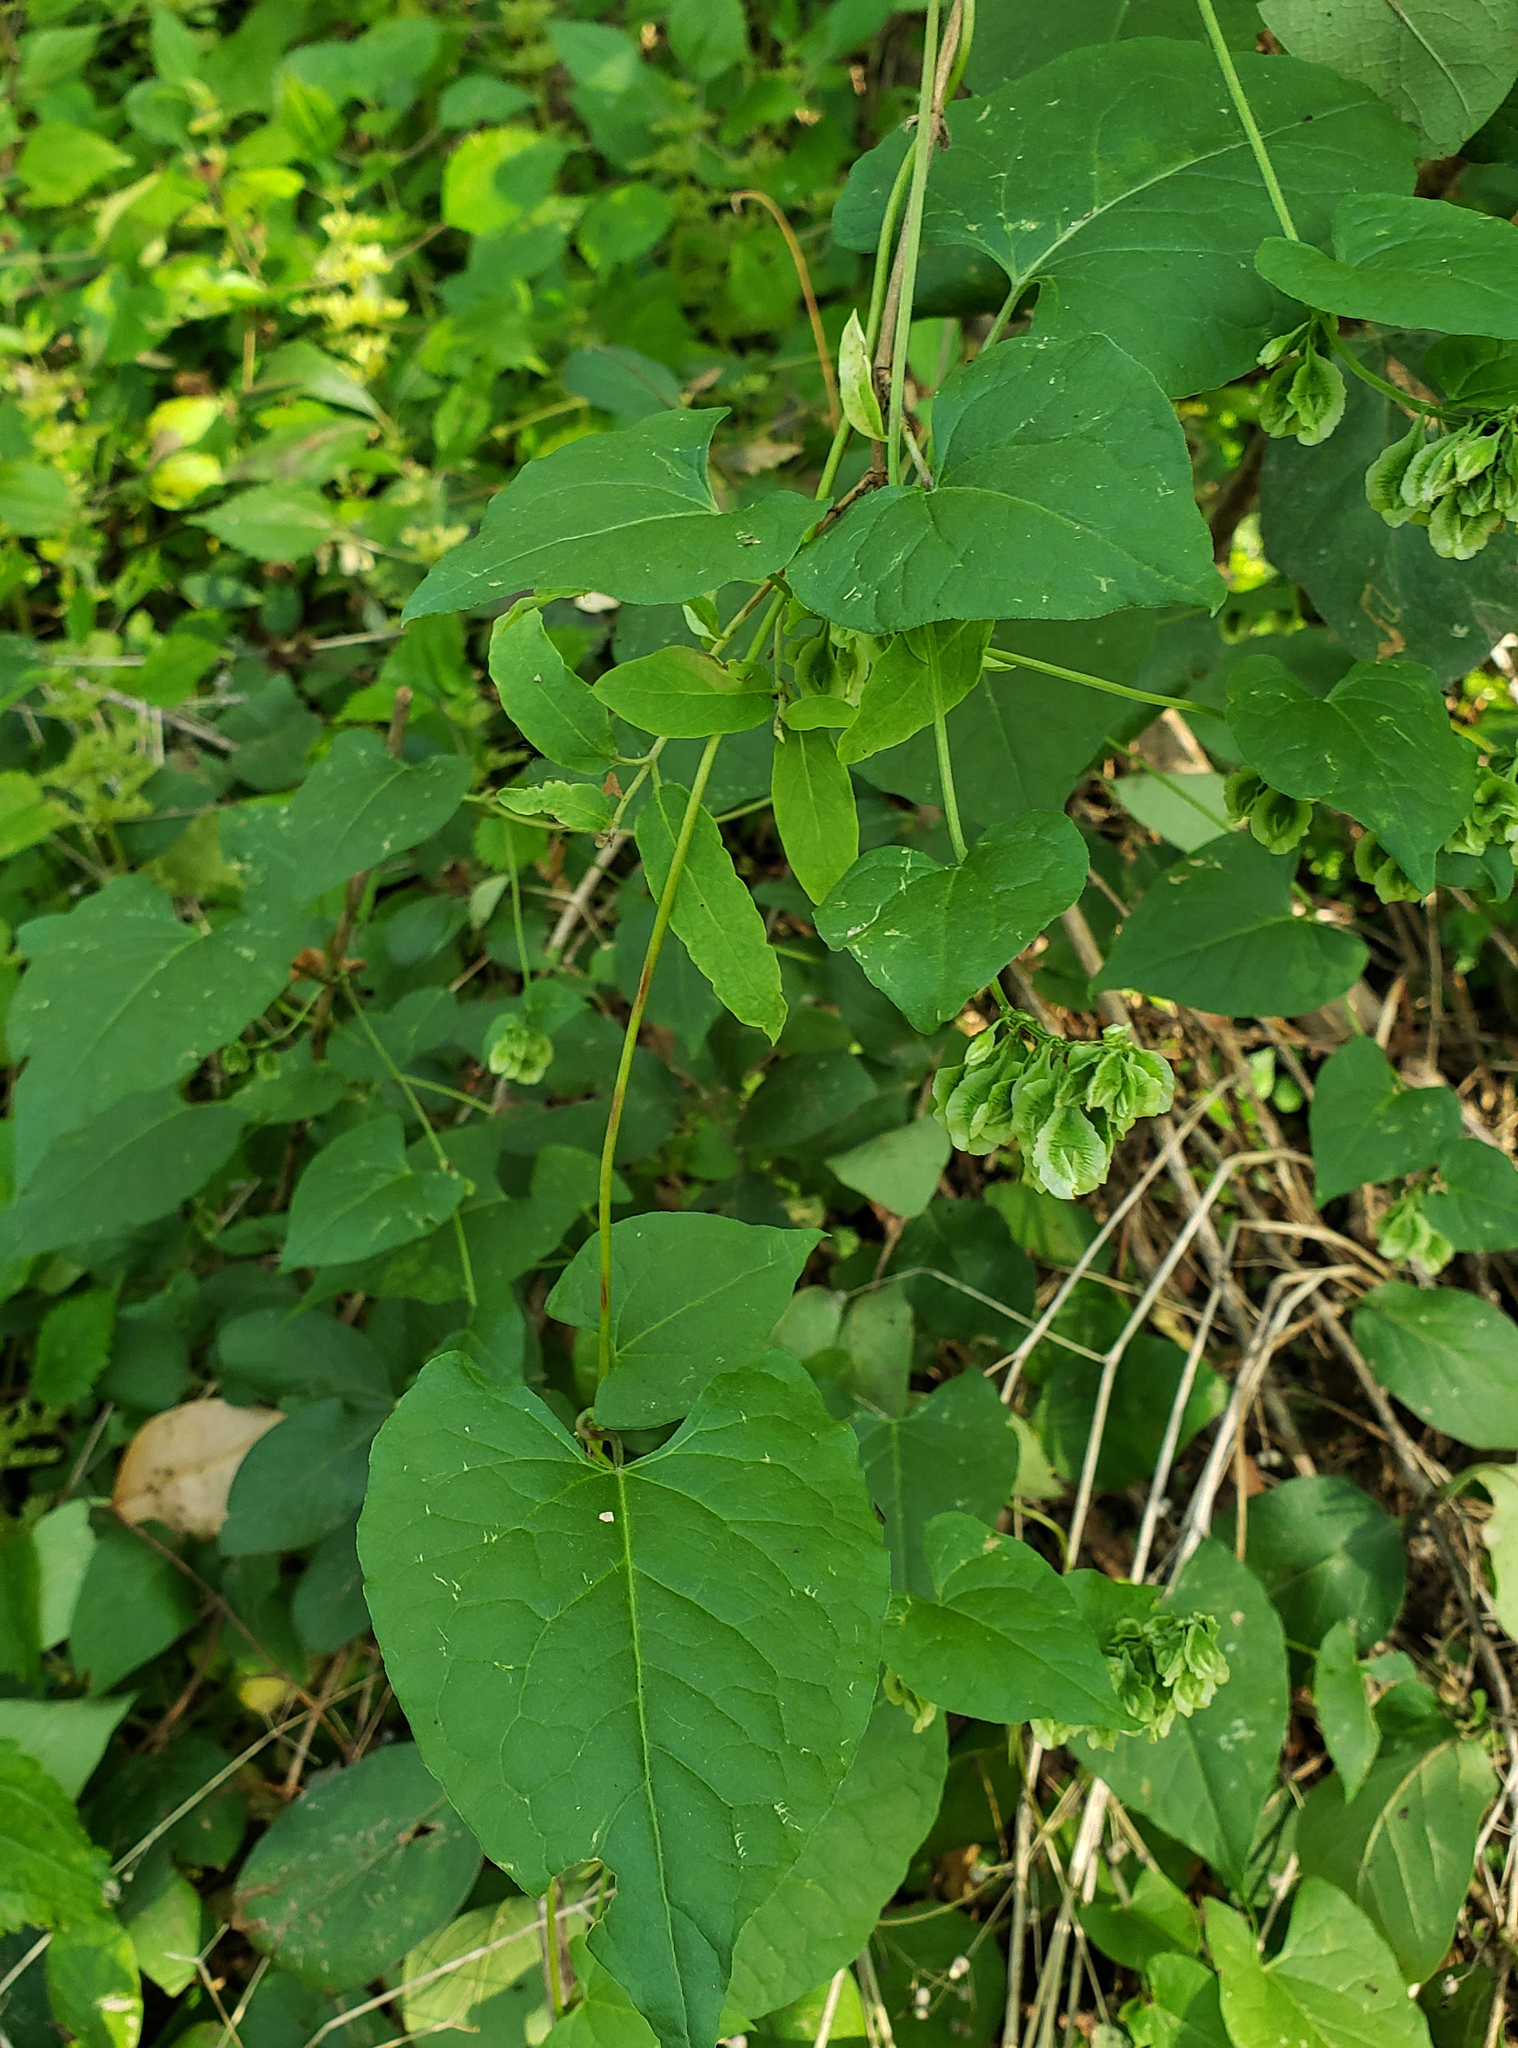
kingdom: Plantae
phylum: Tracheophyta
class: Magnoliopsida
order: Caryophyllales
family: Polygonaceae
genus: Fallopia
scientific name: Fallopia scandens
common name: Climbing false buckwheat
